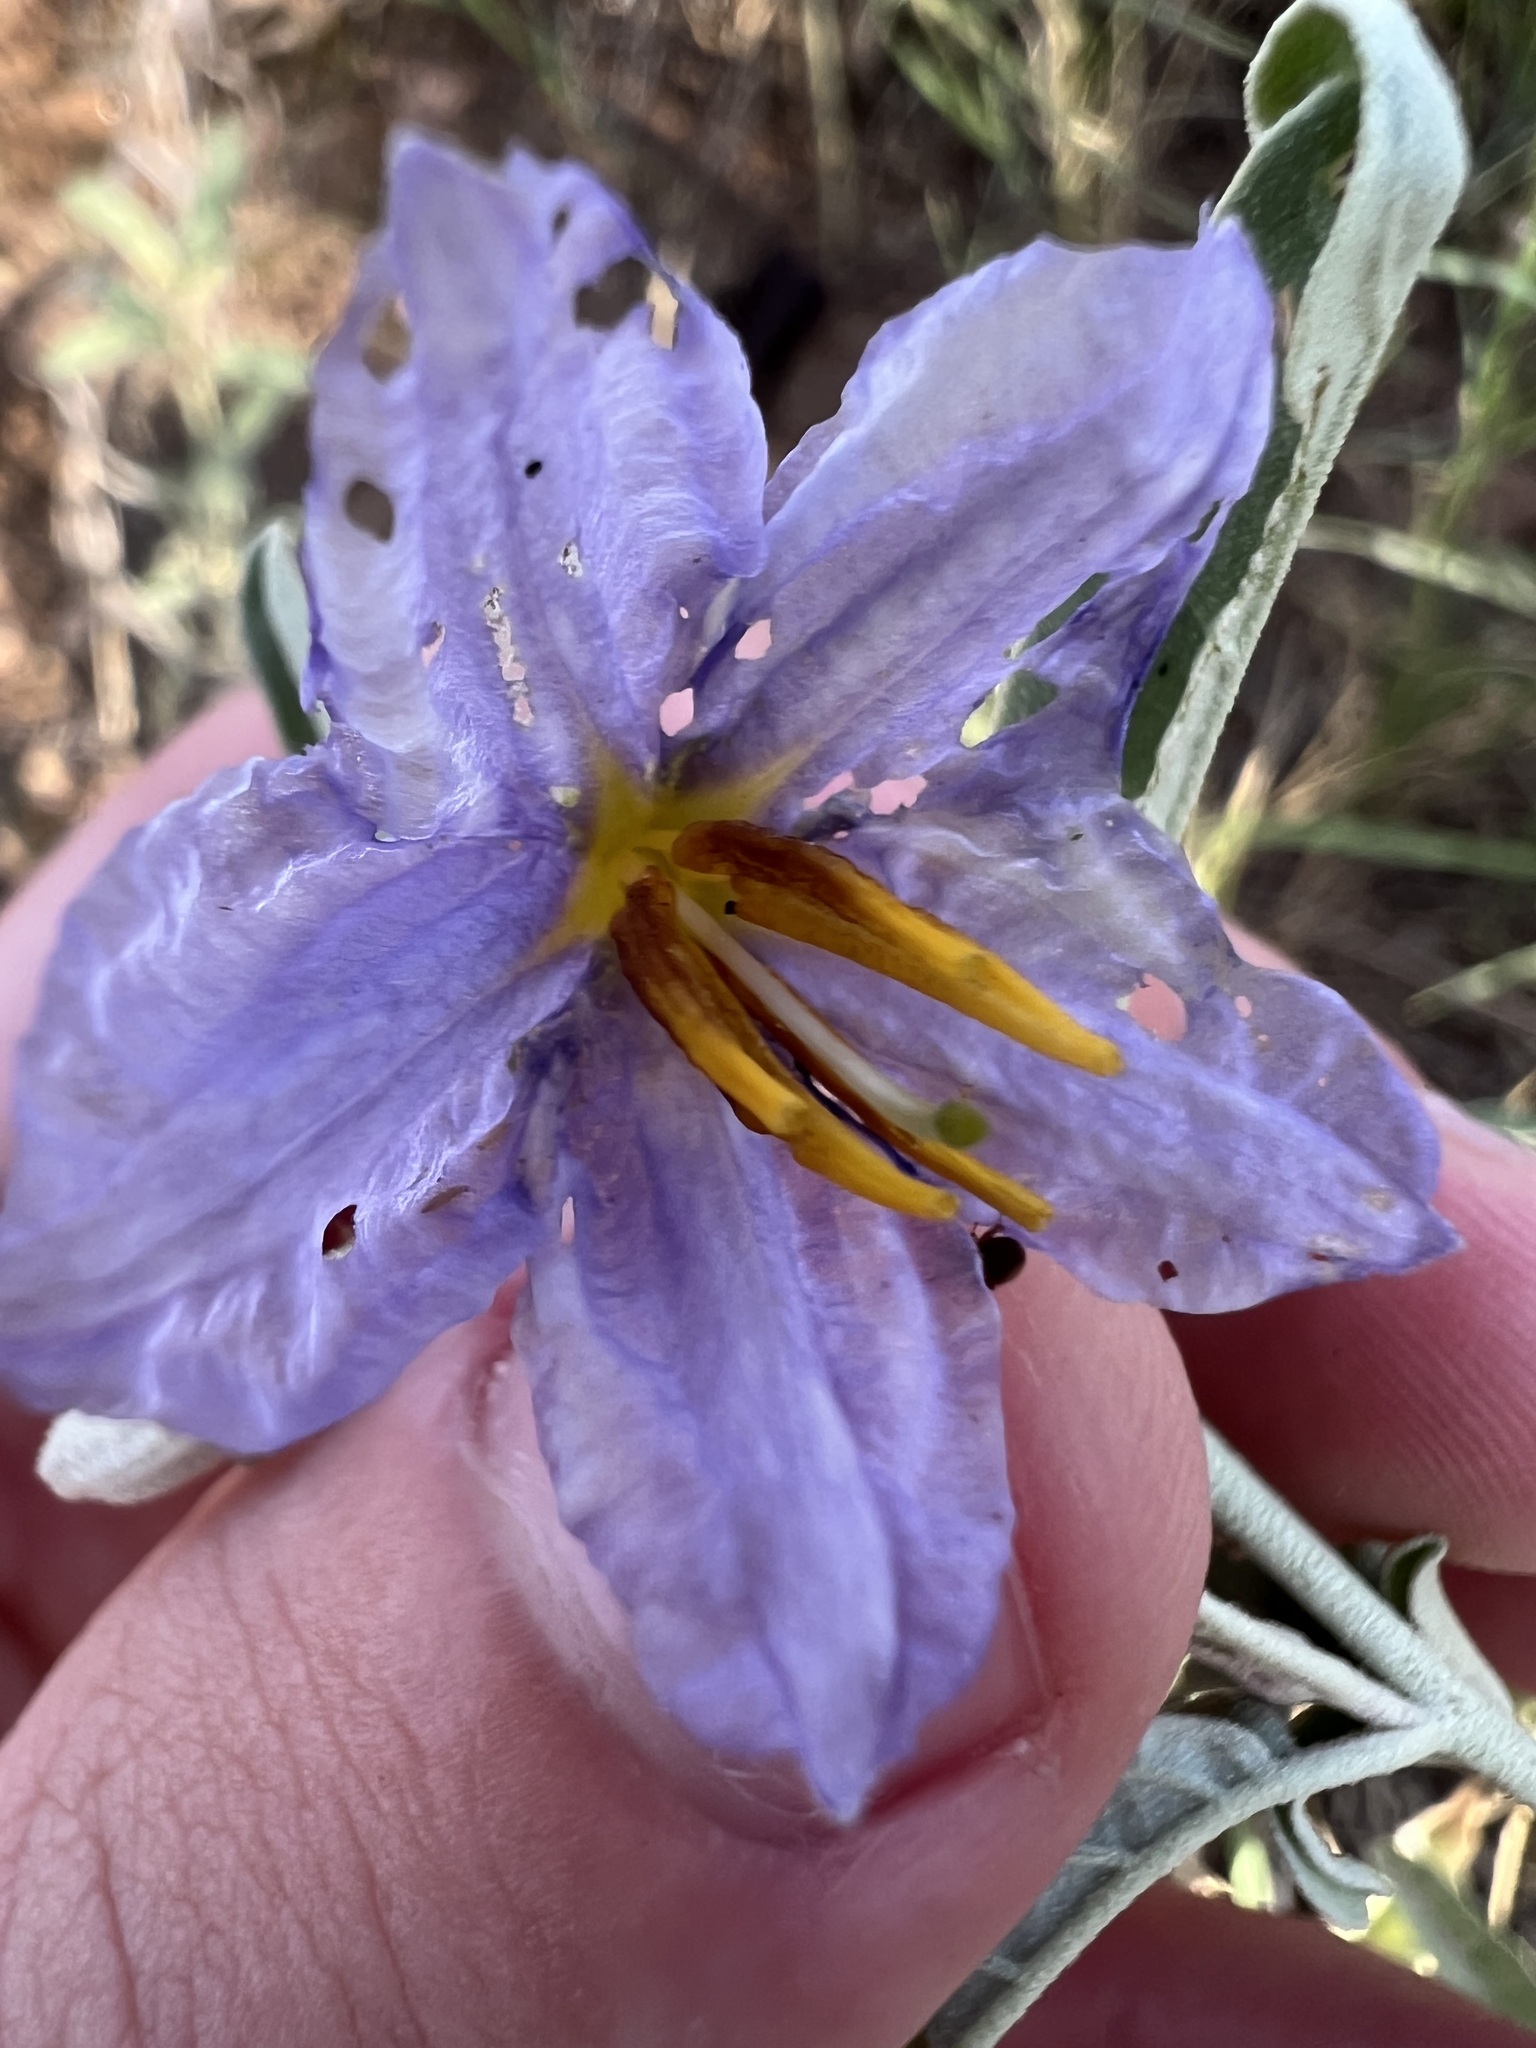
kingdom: Plantae
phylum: Tracheophyta
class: Magnoliopsida
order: Solanales
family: Solanaceae
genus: Solanum
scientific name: Solanum elaeagnifolium
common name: Silverleaf nightshade
